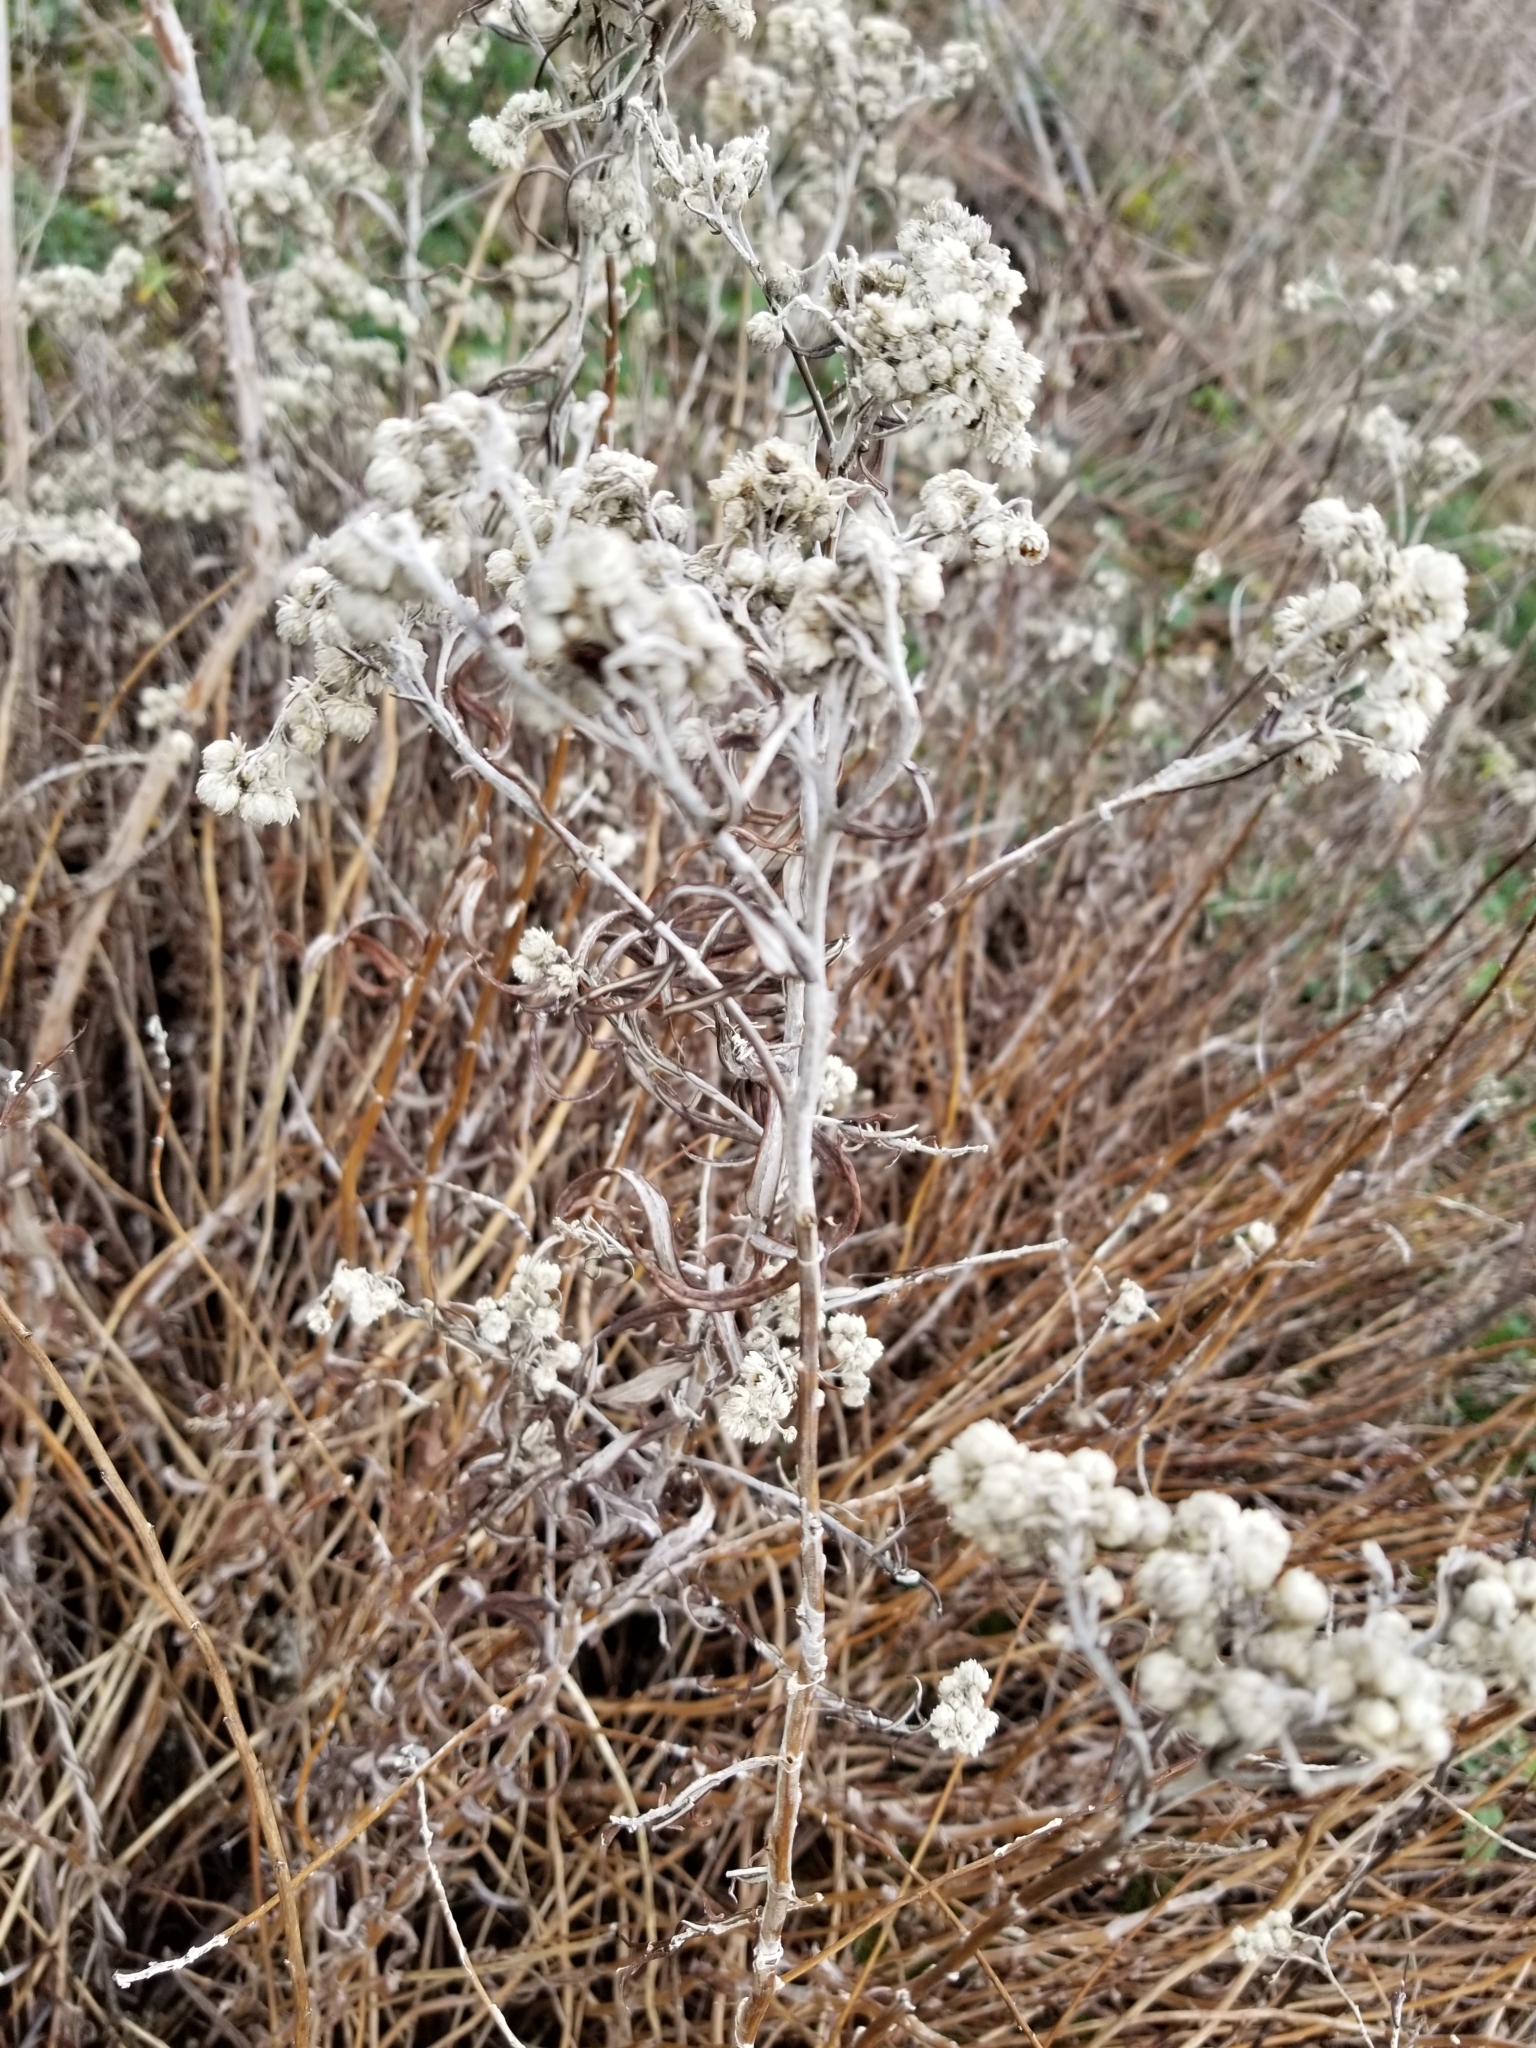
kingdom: Plantae
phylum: Tracheophyta
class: Magnoliopsida
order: Asterales
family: Asteraceae
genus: Anaphalis
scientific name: Anaphalis margaritacea
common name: Pearly everlasting
